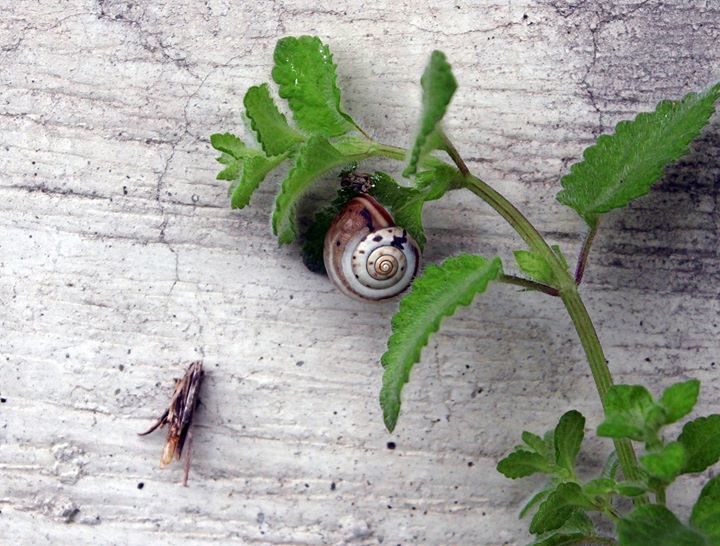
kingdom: Animalia
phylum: Mollusca
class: Gastropoda
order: Stylommatophora
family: Hygromiidae
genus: Monacha
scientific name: Monacha cartusiana
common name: Carthusian snail
